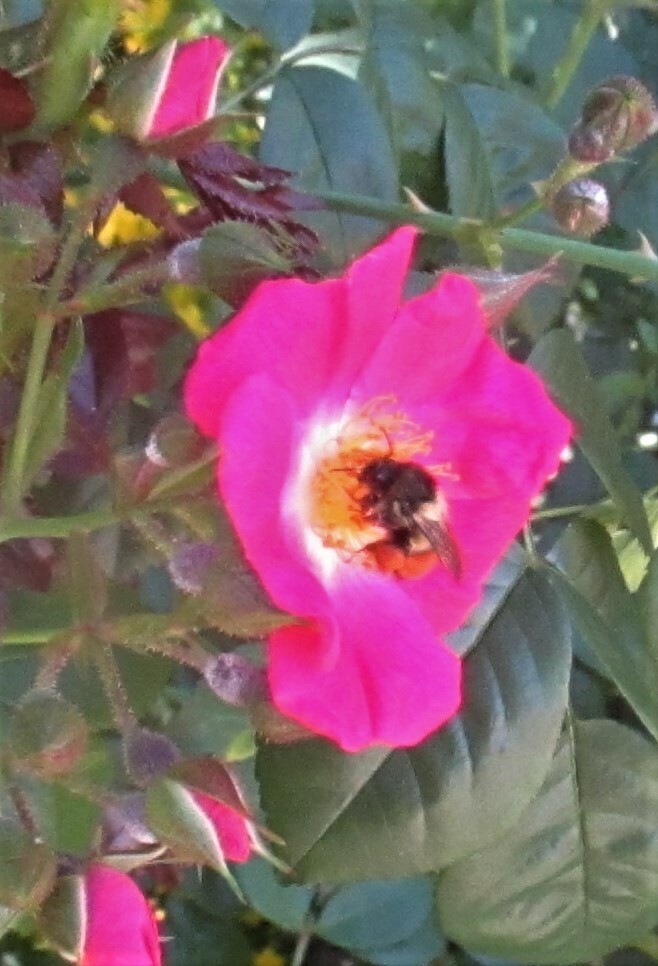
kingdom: Animalia
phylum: Arthropoda
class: Insecta
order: Hymenoptera
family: Apidae
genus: Bombus
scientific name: Bombus melanopygus
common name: Black tail bumble bee
